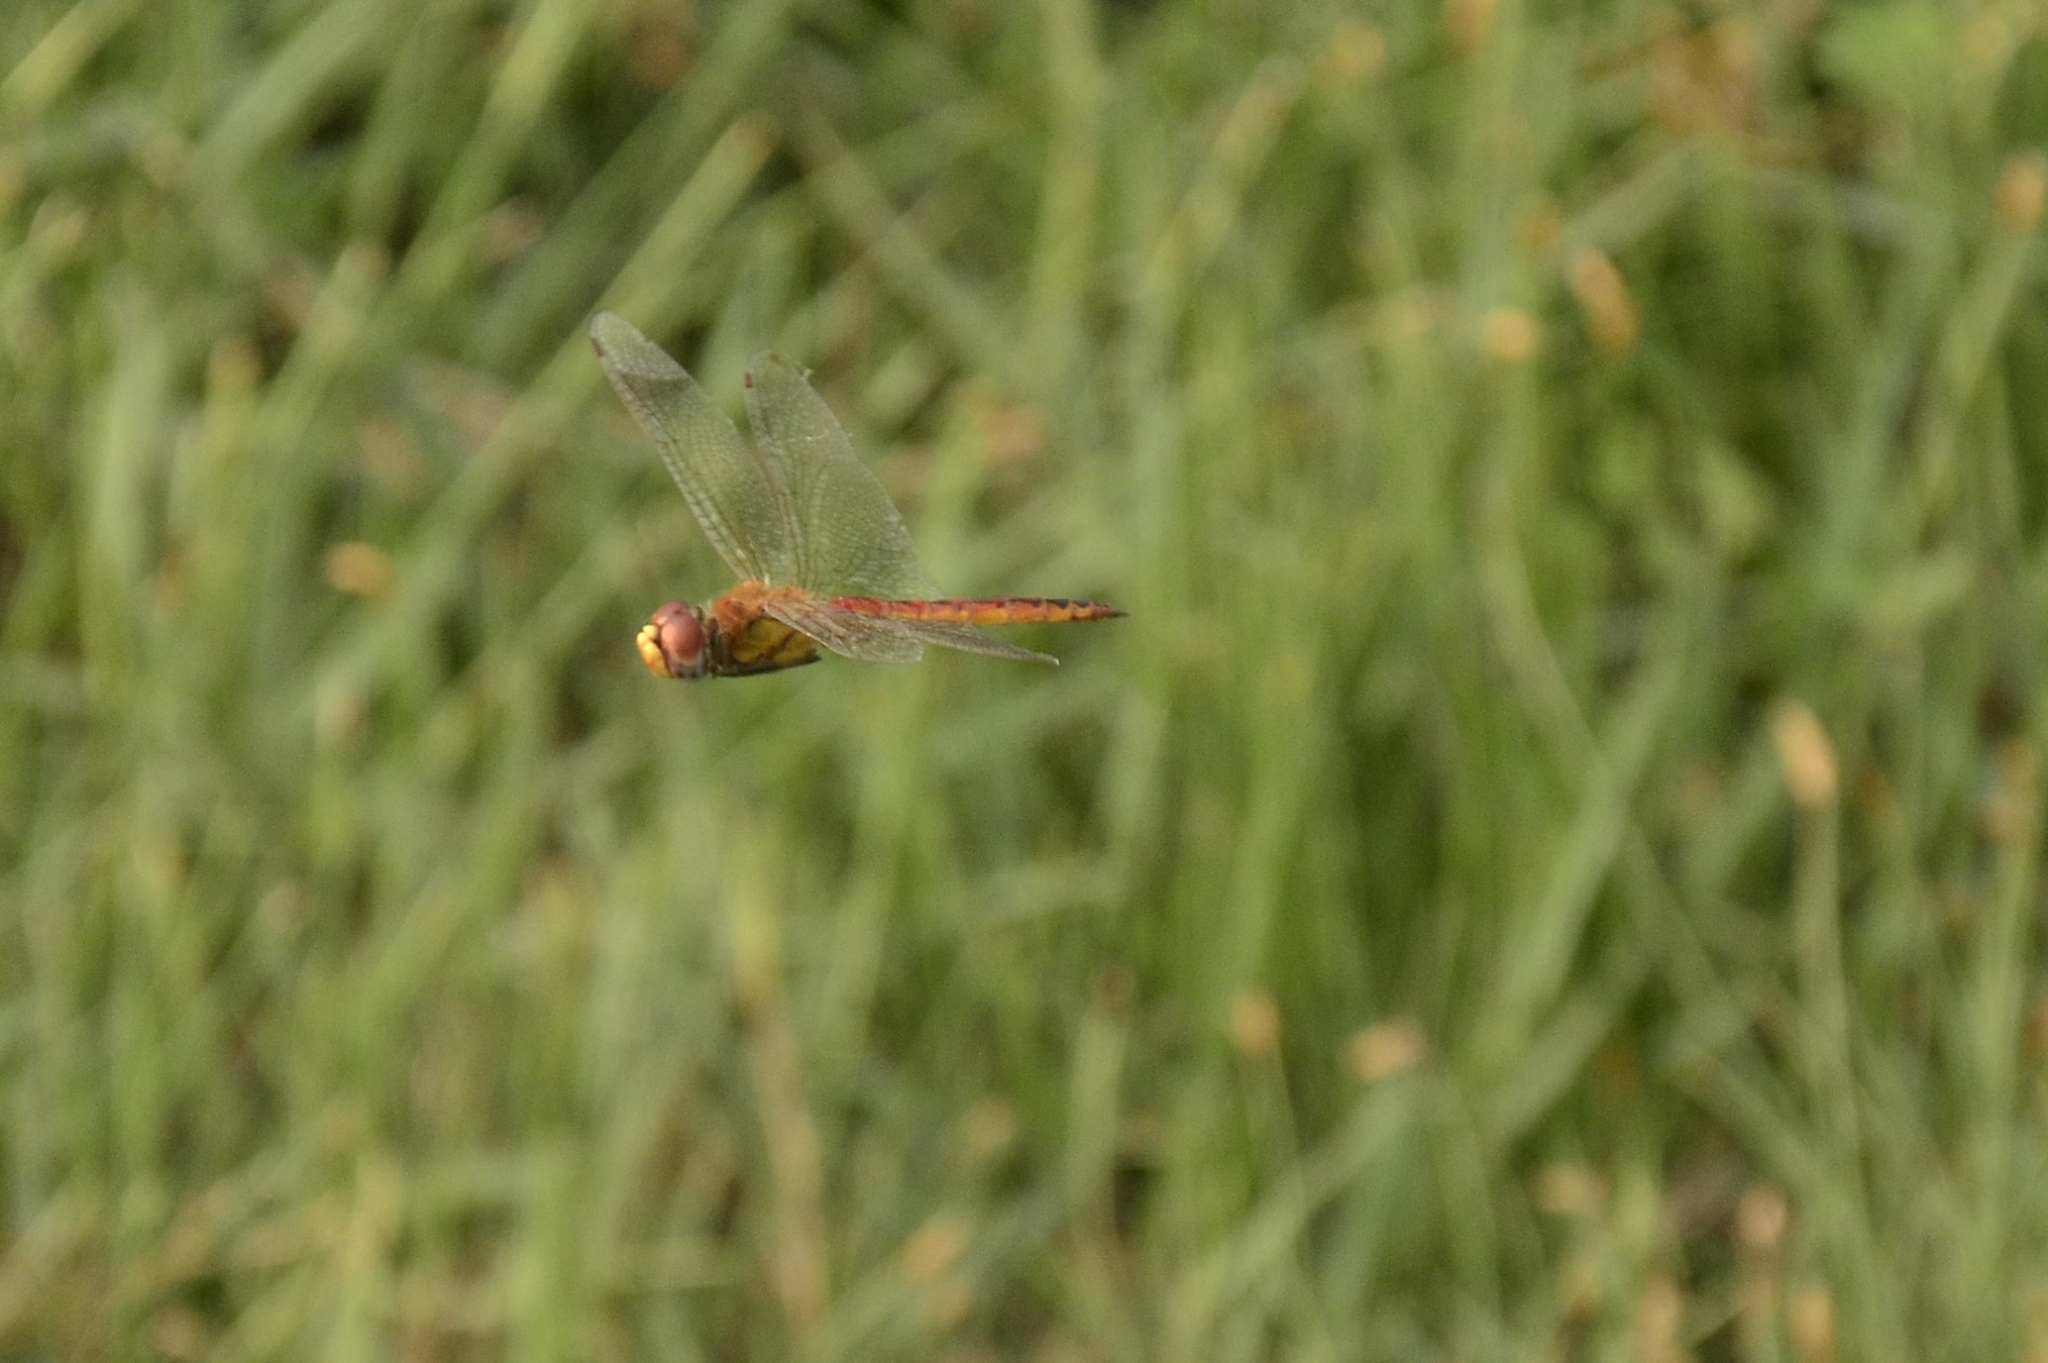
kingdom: Animalia
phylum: Arthropoda
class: Insecta
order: Odonata
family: Libellulidae
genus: Pantala
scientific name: Pantala flavescens
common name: Wandering glider
